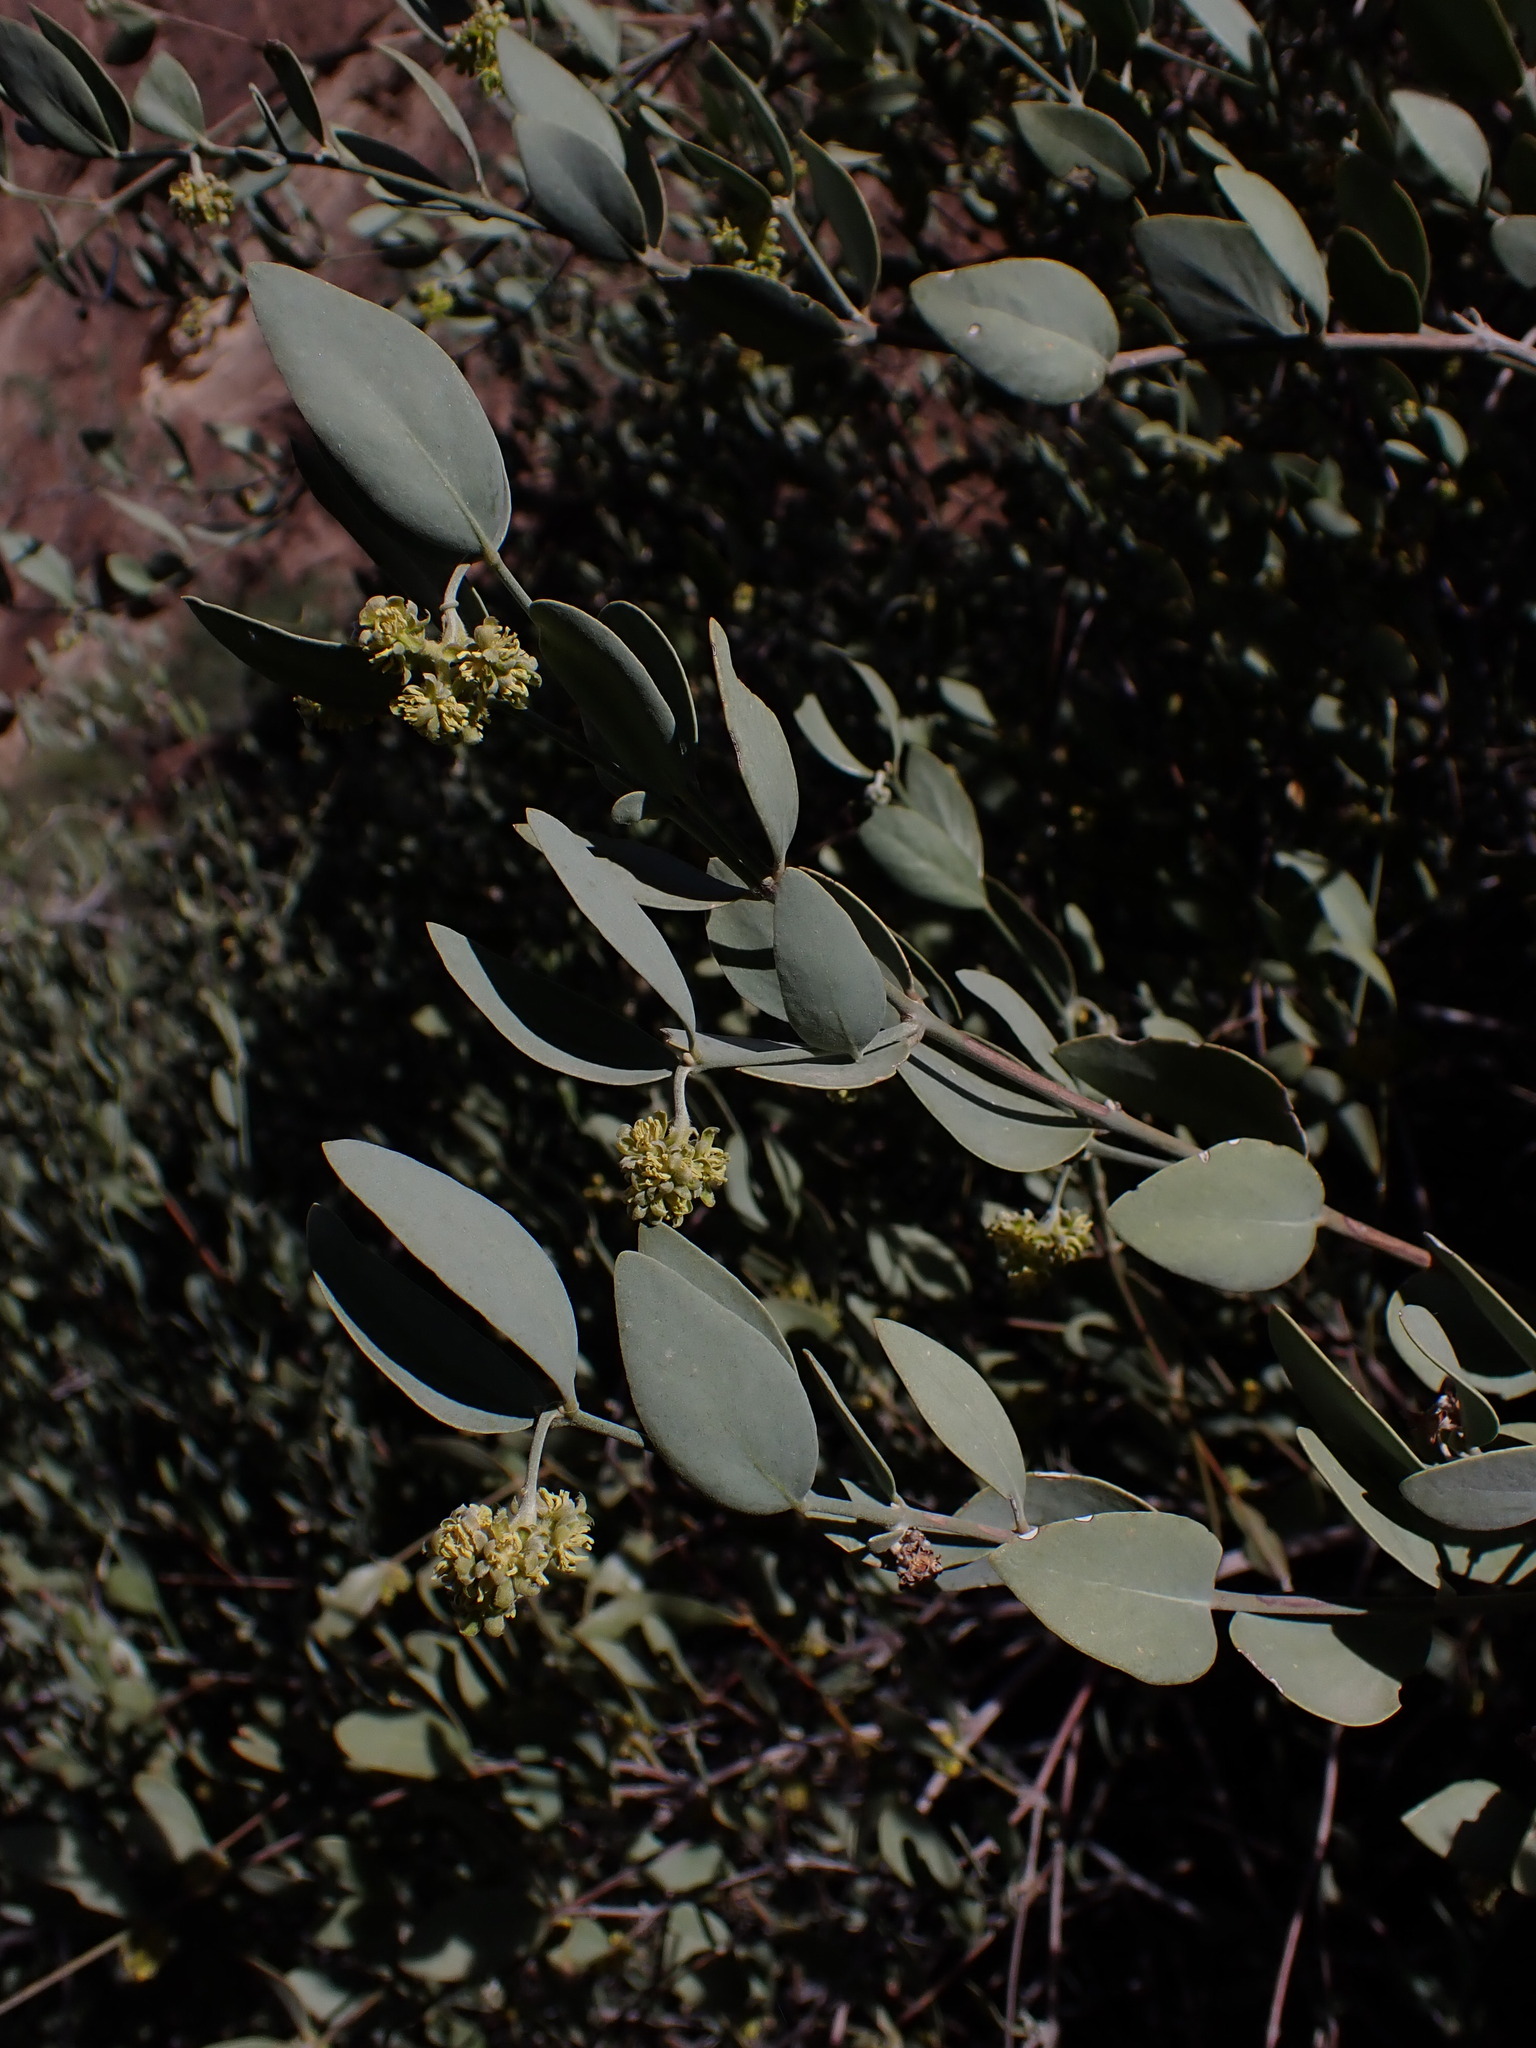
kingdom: Plantae
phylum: Tracheophyta
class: Magnoliopsida
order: Caryophyllales
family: Simmondsiaceae
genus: Simmondsia
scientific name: Simmondsia chinensis
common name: Jojoba
